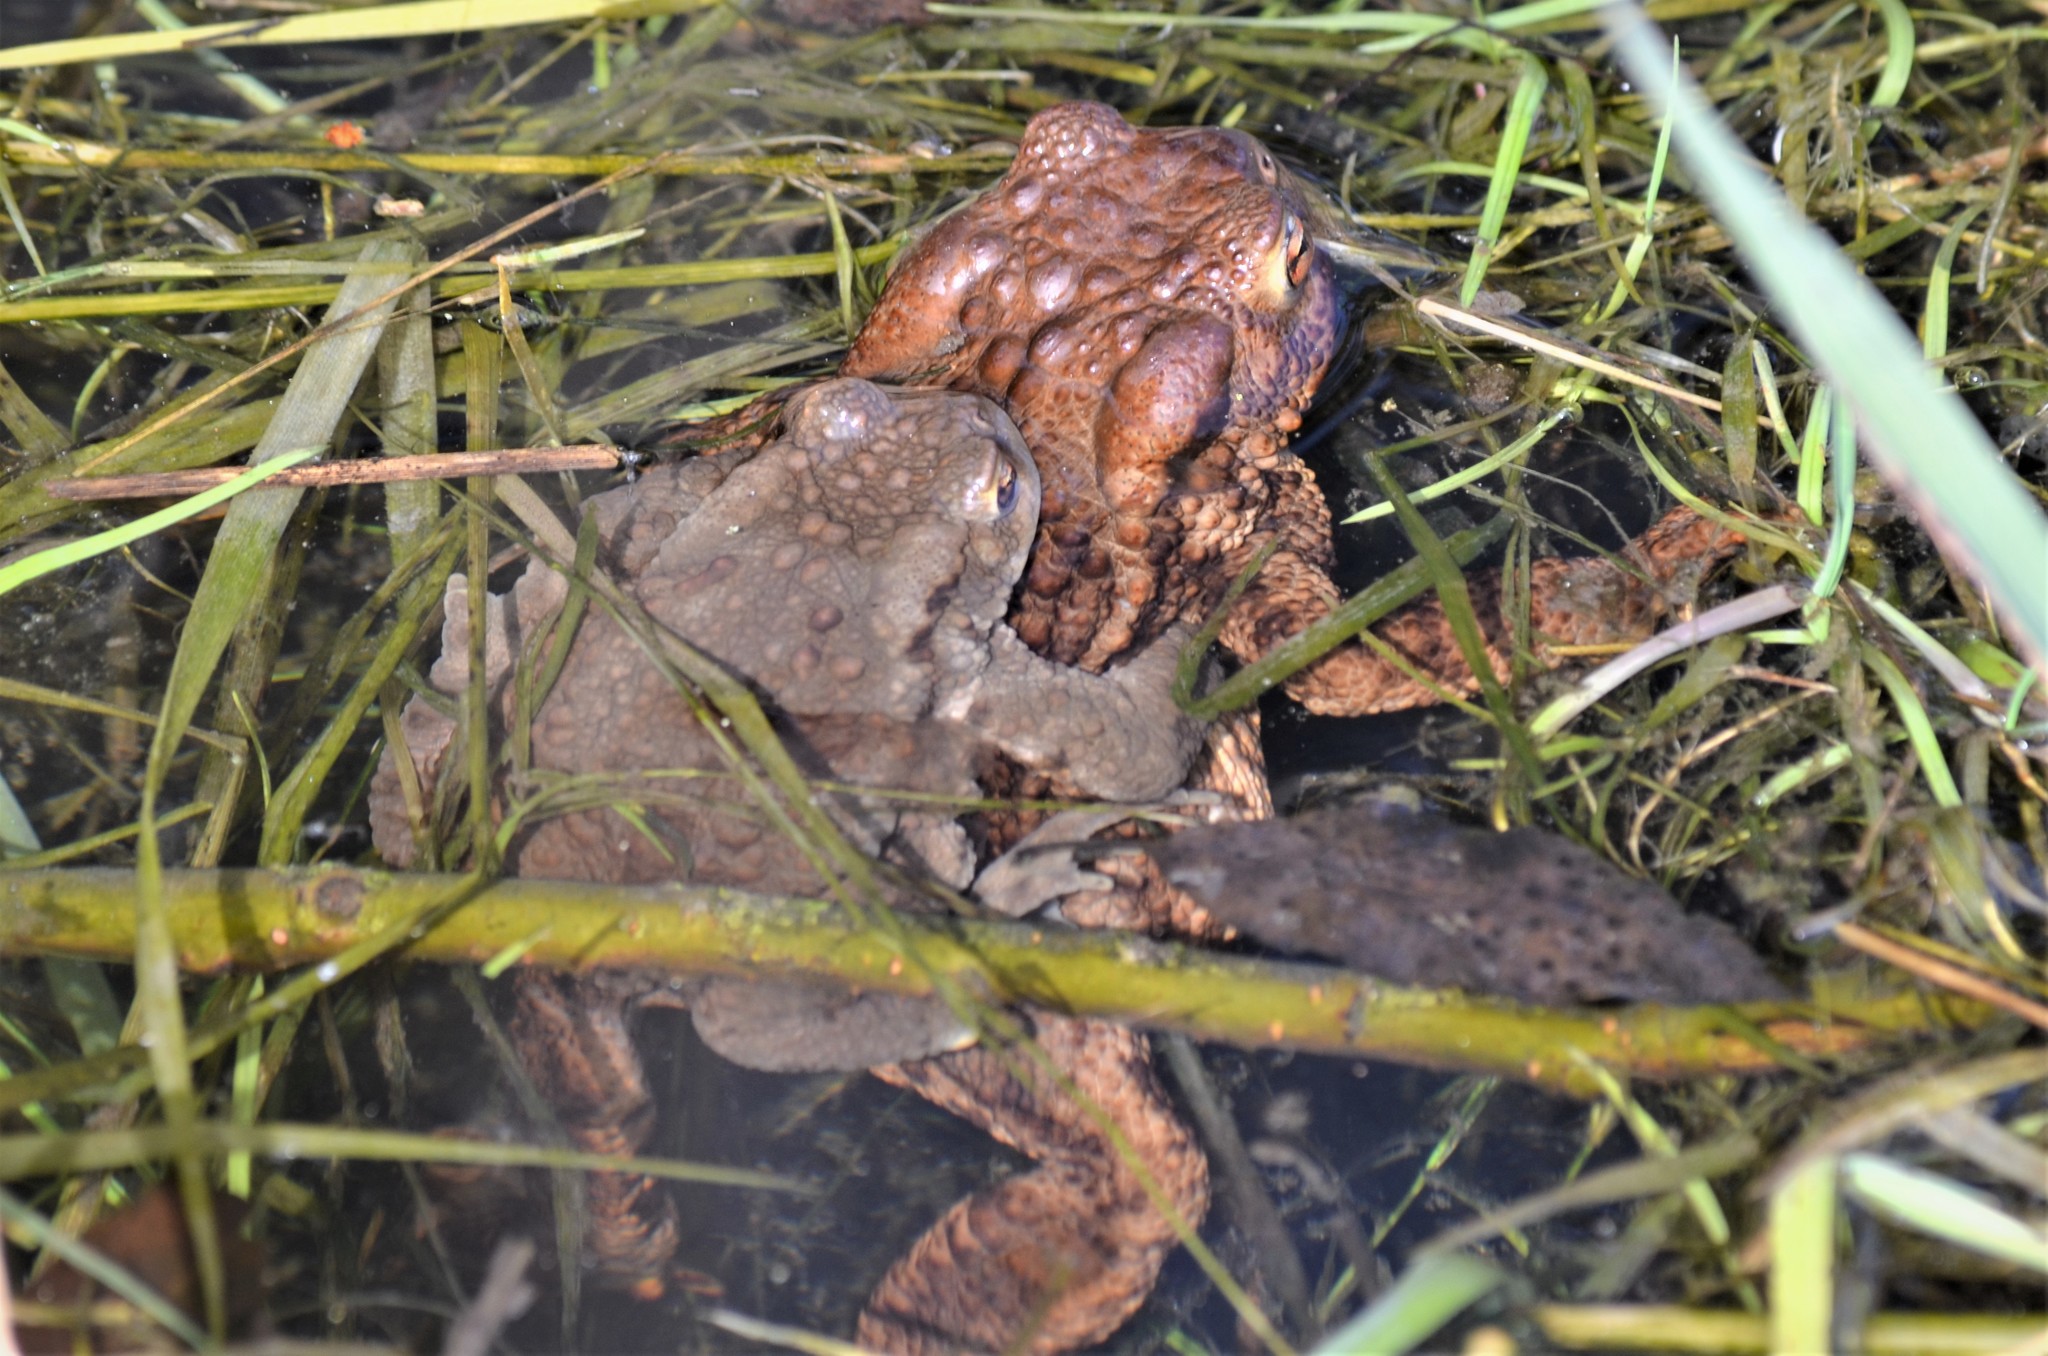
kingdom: Animalia
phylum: Chordata
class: Amphibia
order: Anura
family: Bufonidae
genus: Bufo
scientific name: Bufo bufo
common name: Common toad
